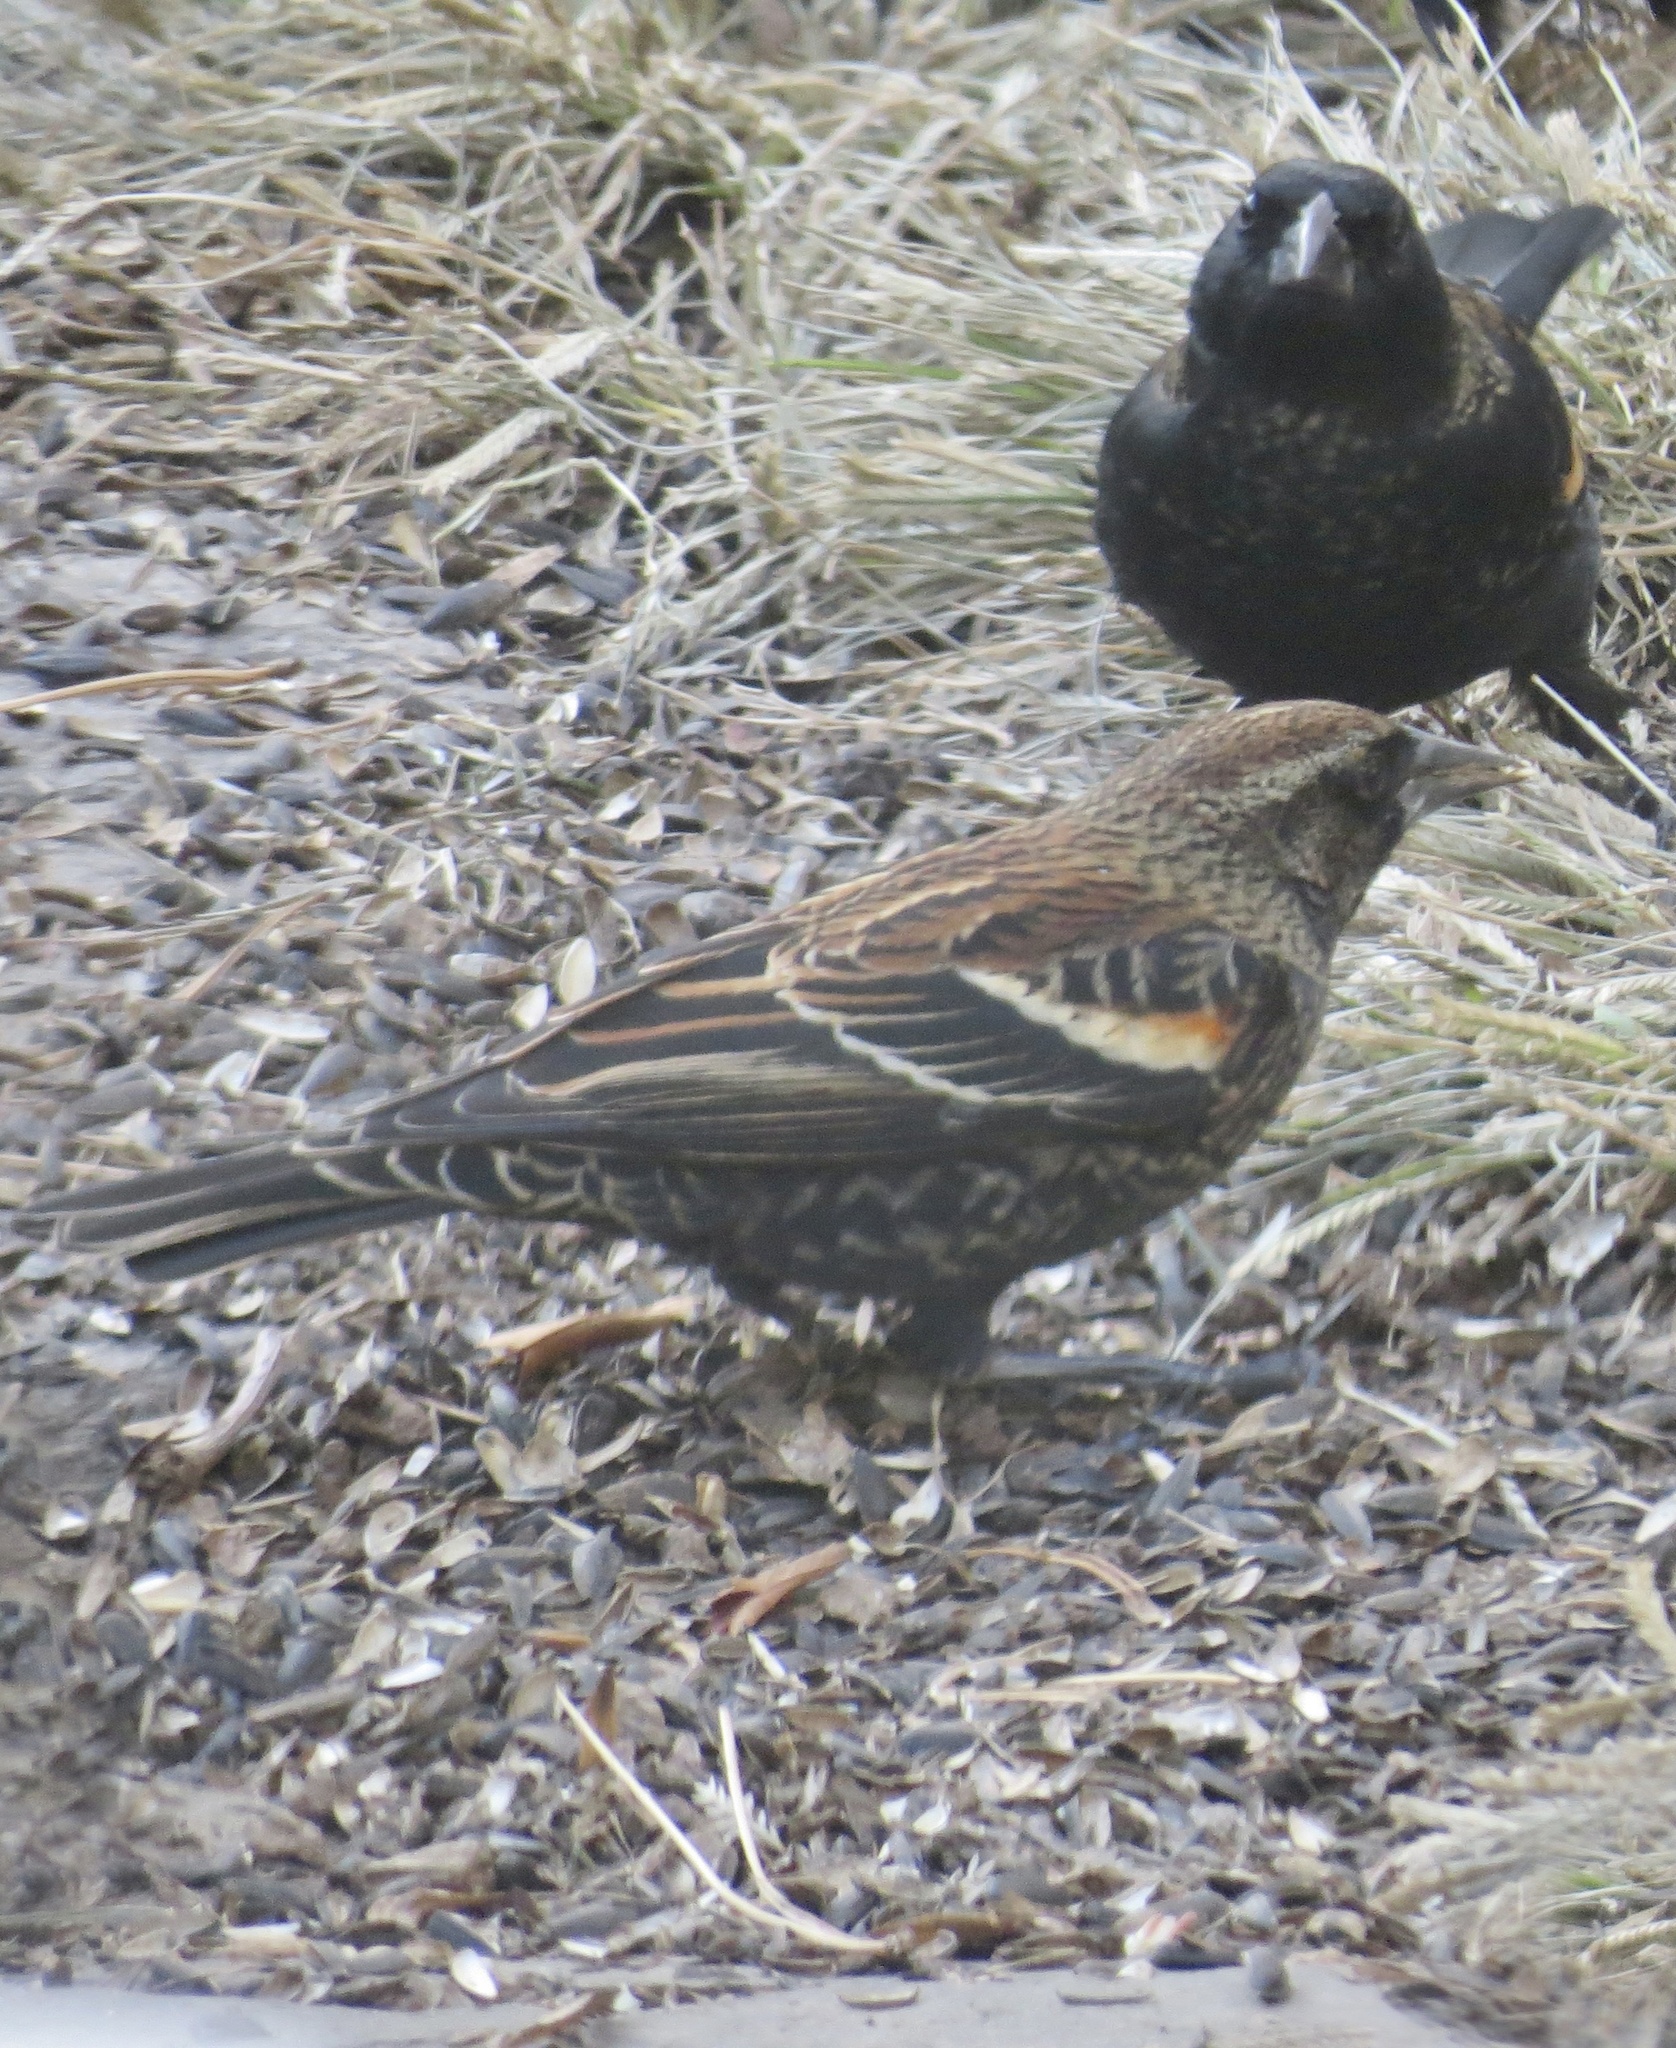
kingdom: Animalia
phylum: Chordata
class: Aves
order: Passeriformes
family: Icteridae
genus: Agelaius
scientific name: Agelaius phoeniceus
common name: Red-winged blackbird
